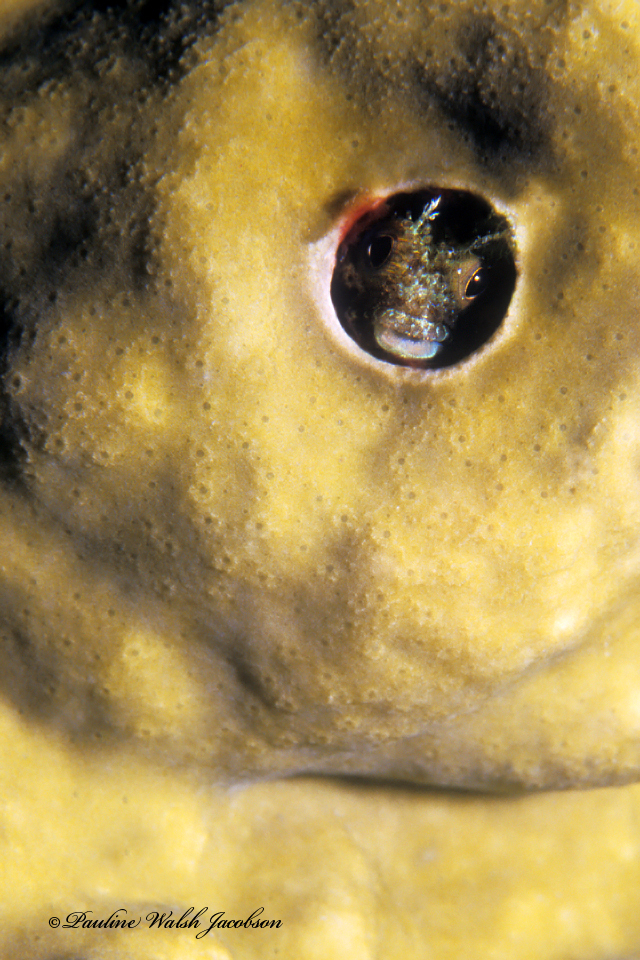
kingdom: Animalia
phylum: Chordata
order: Perciformes
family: Chaenopsidae
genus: Acanthemblemaria
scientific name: Acanthemblemaria maria
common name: Secretary blenny
